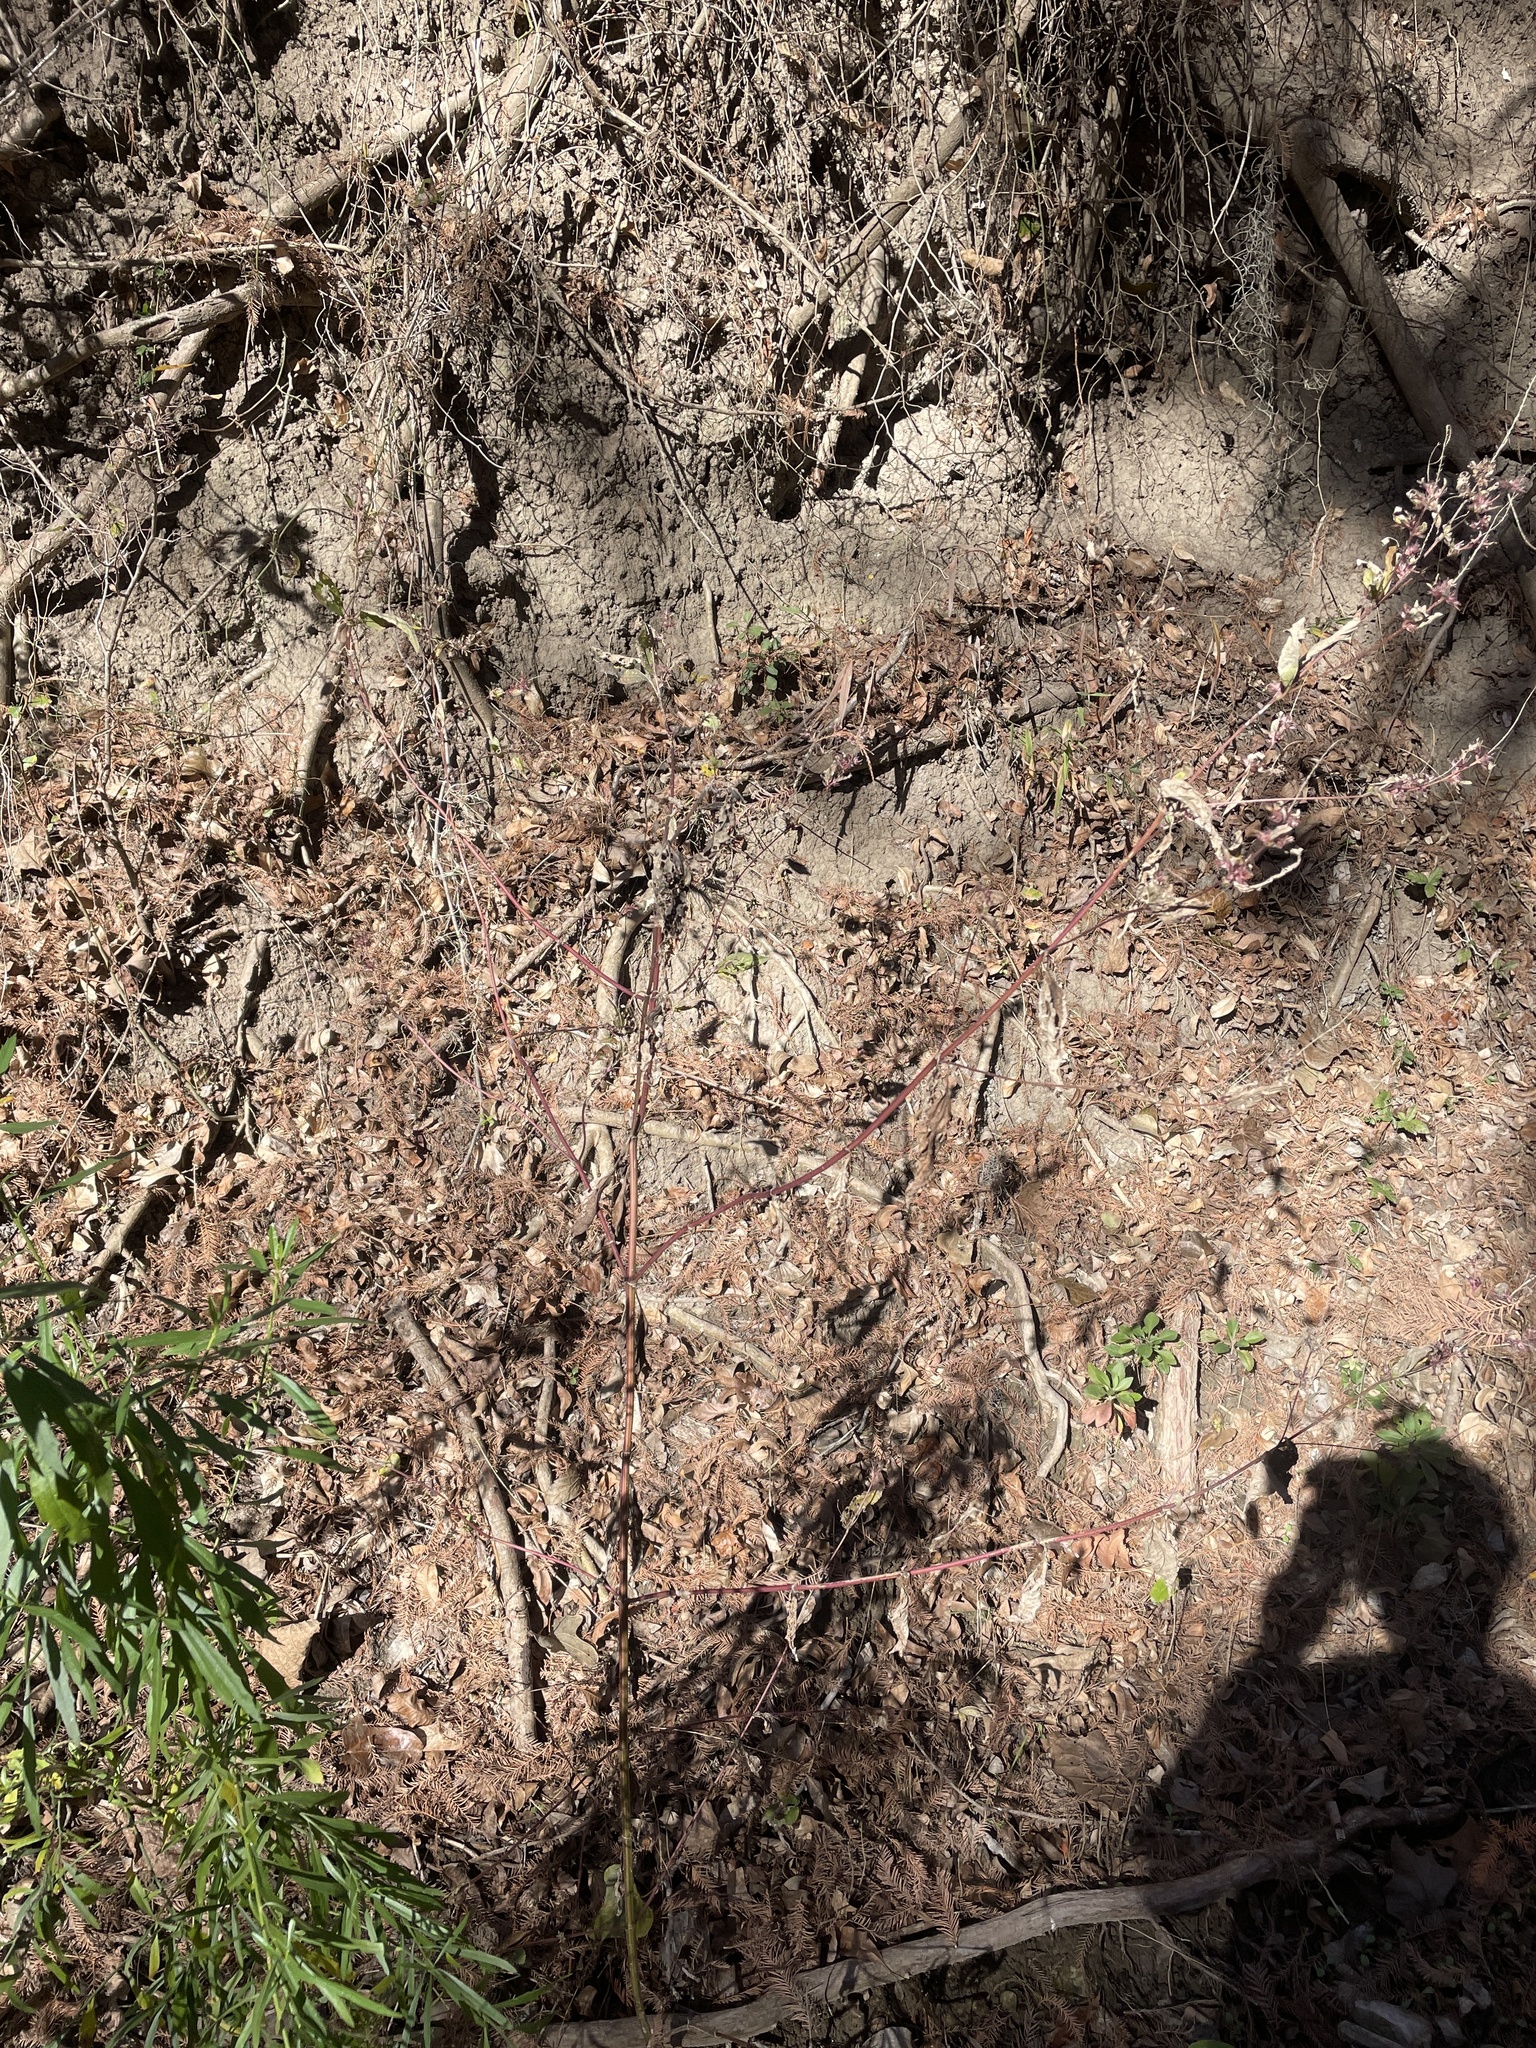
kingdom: Plantae
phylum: Tracheophyta
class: Magnoliopsida
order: Asterales
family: Asteraceae
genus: Ambrosia
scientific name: Ambrosia trifida
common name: Giant ragweed
